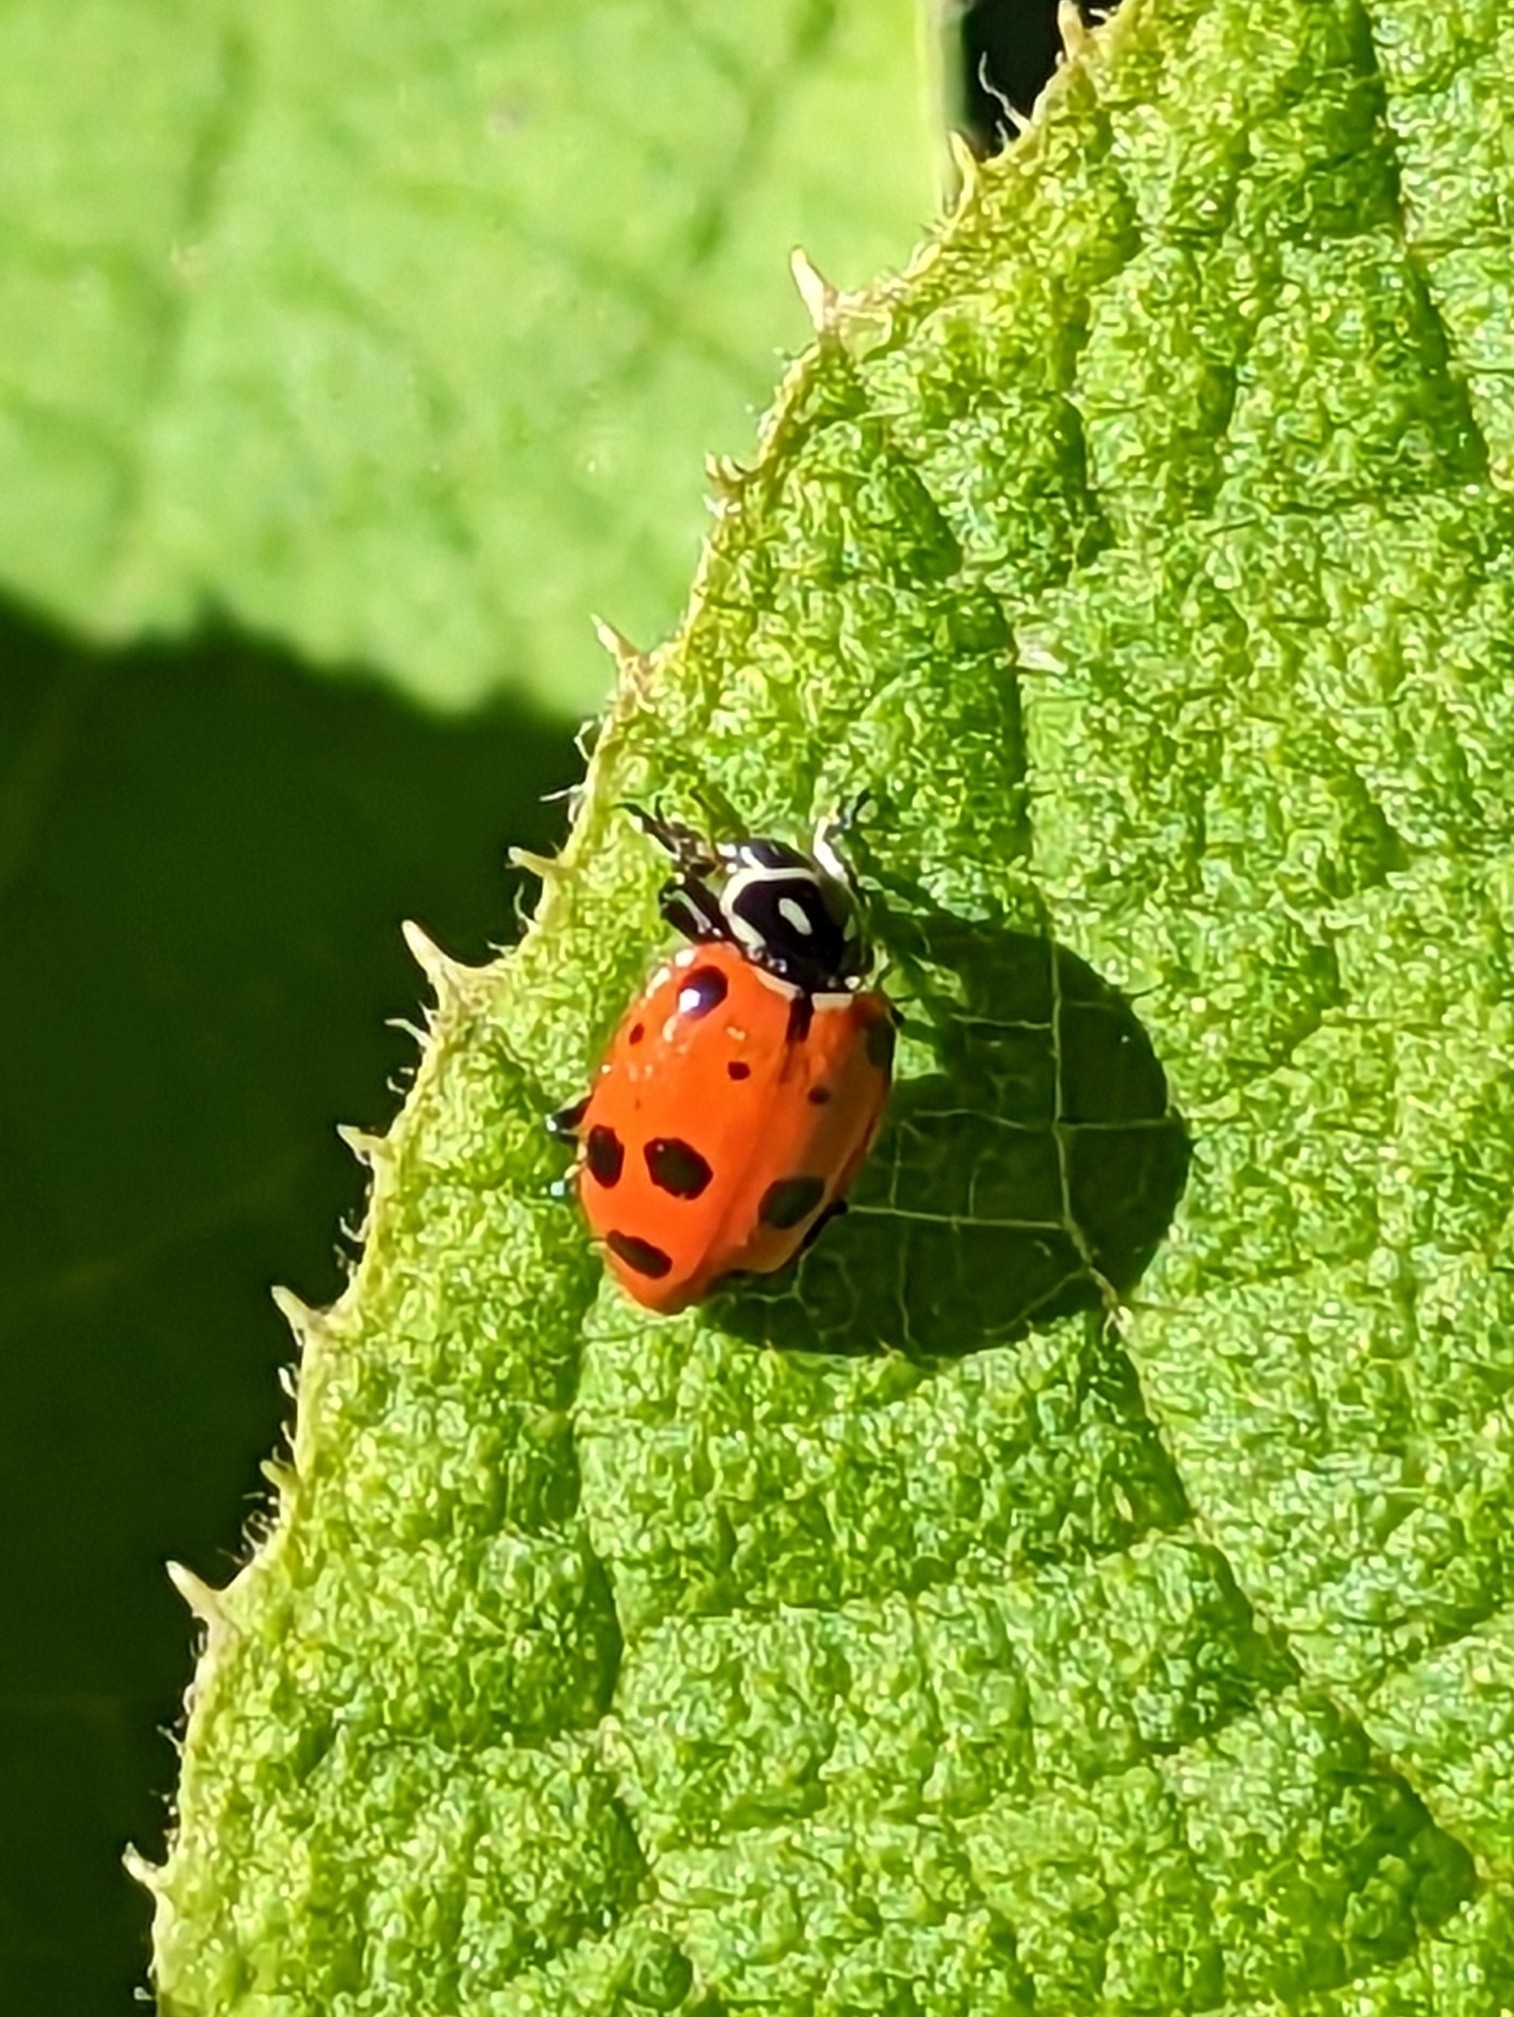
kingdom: Animalia
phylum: Arthropoda
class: Insecta
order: Coleoptera
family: Coccinellidae
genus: Hippodamia
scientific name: Hippodamia convergens
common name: Convergent lady beetle
